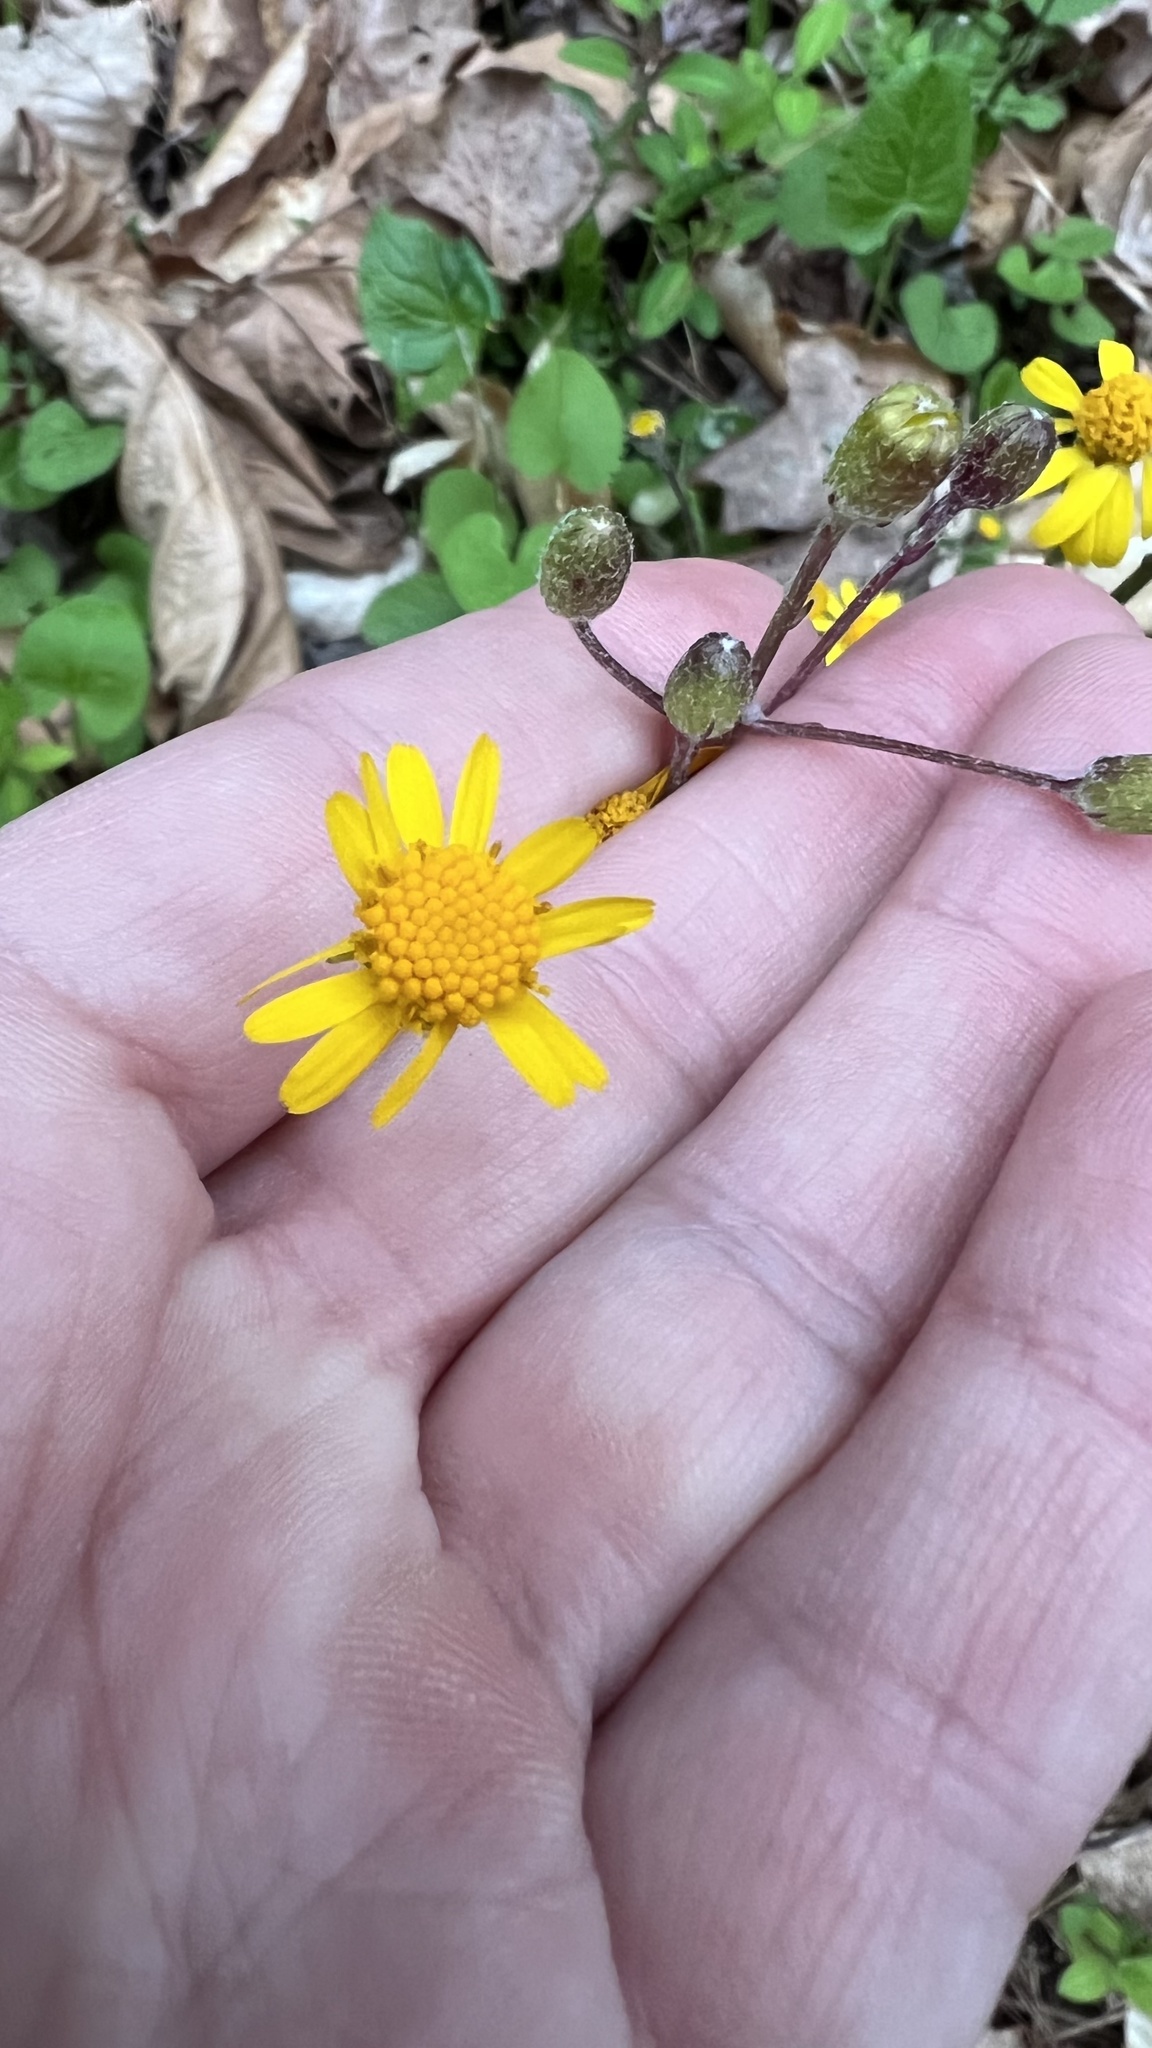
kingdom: Plantae
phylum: Tracheophyta
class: Magnoliopsida
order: Asterales
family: Asteraceae
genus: Packera
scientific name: Packera aurea
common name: Golden groundsel
